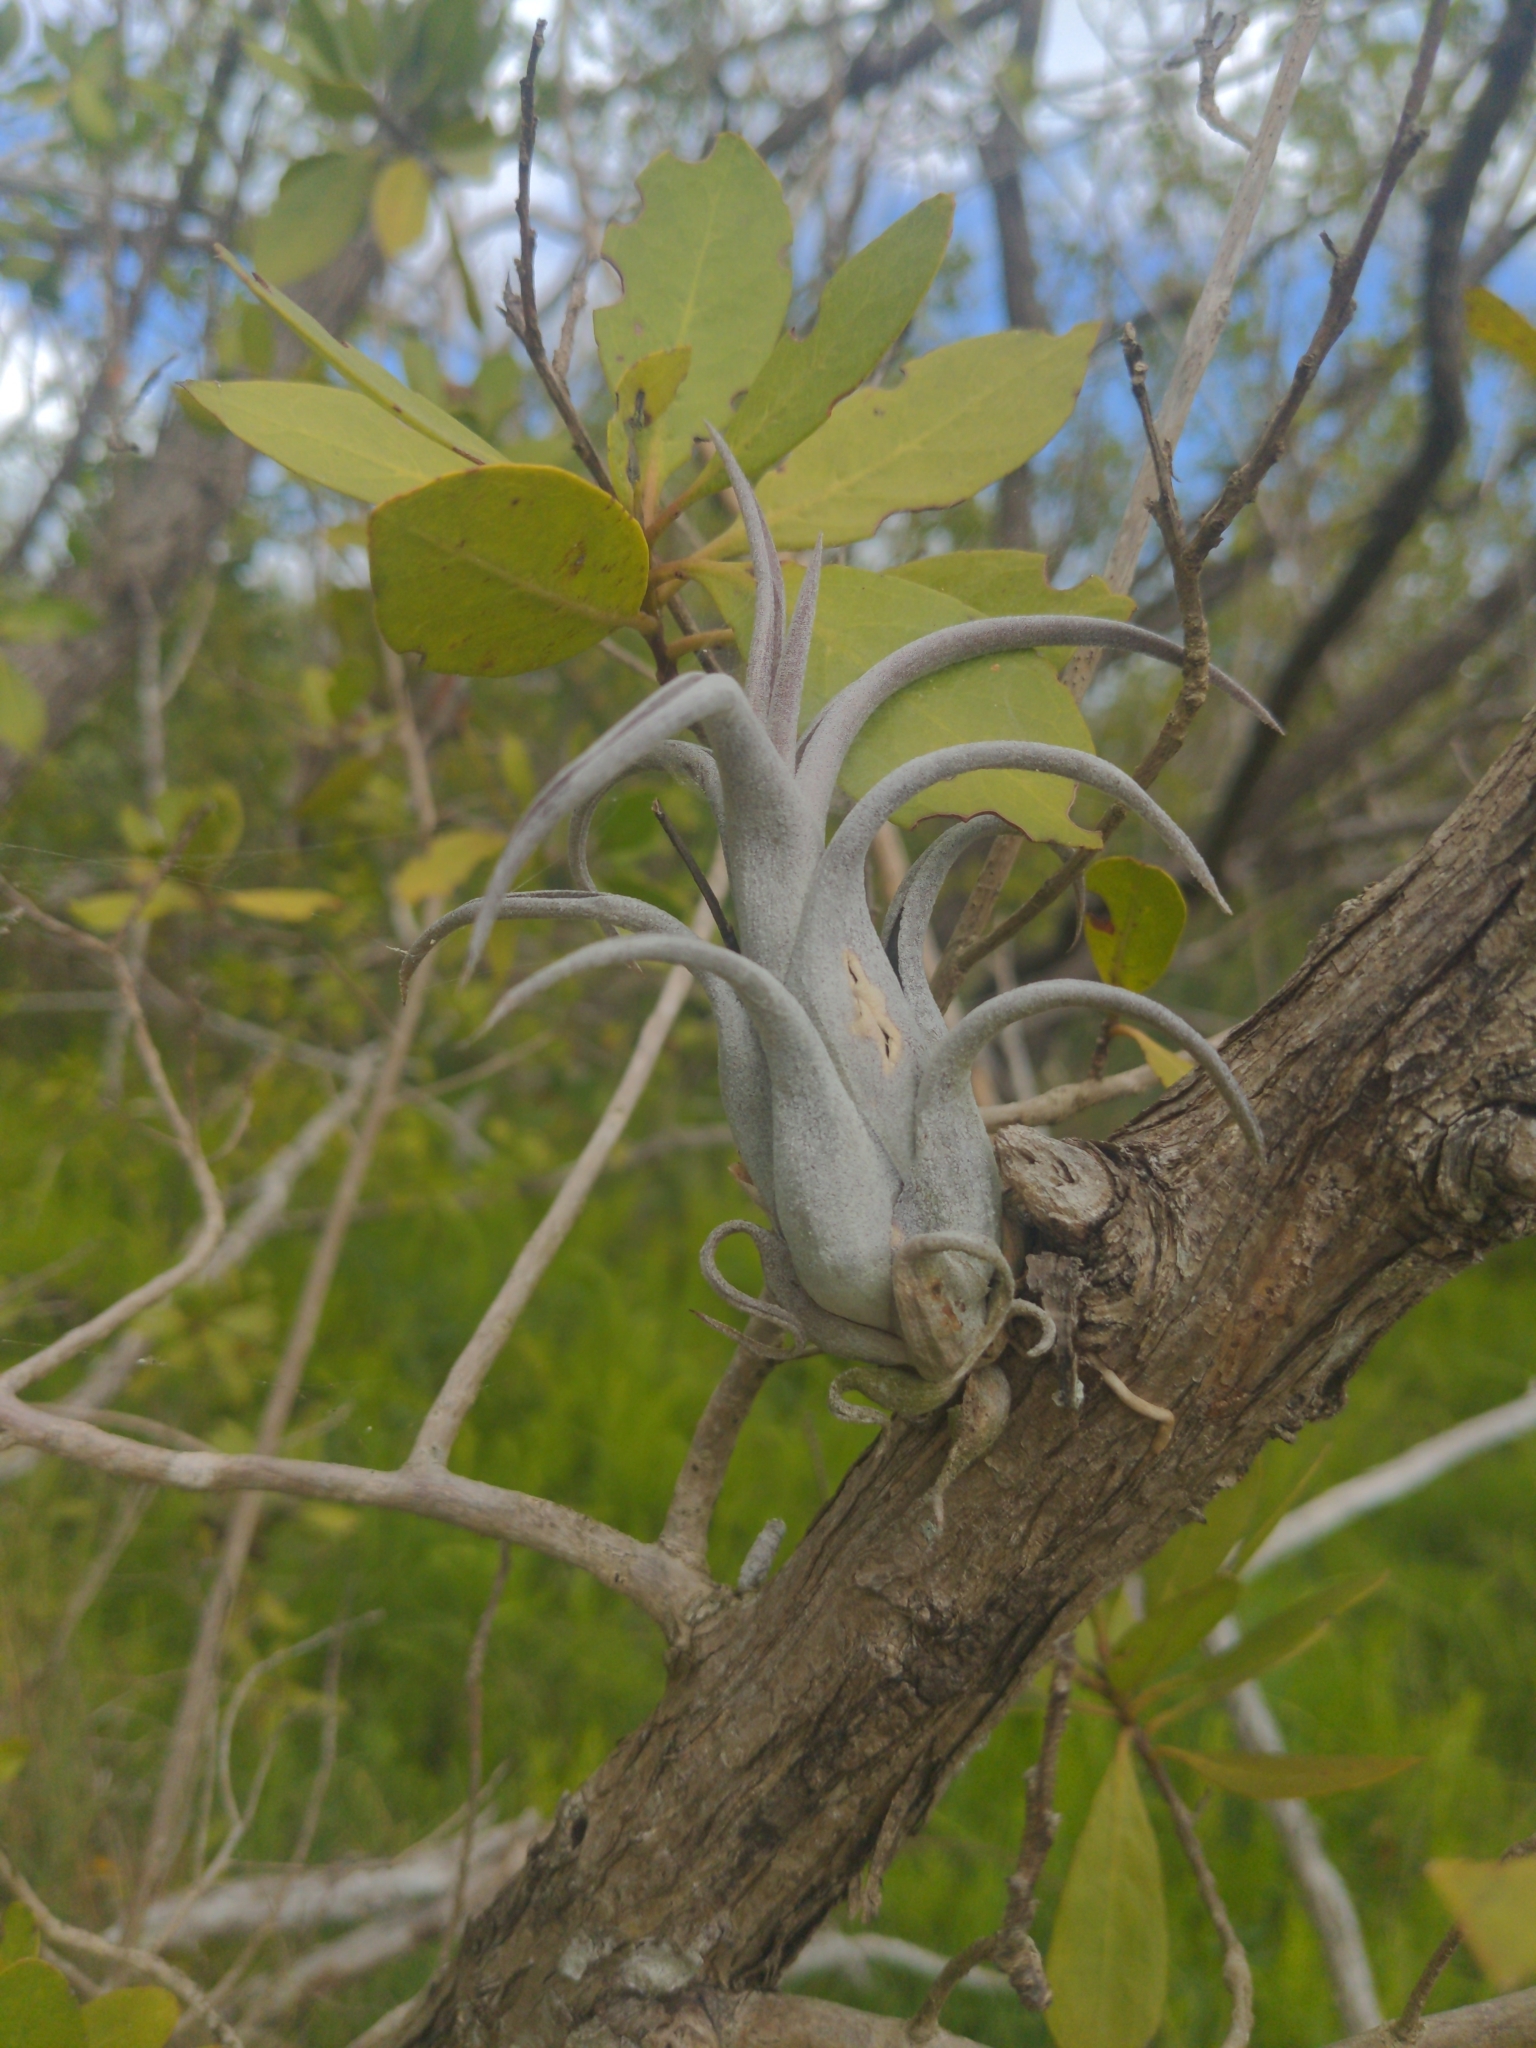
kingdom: Plantae
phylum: Tracheophyta
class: Liliopsida
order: Poales
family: Bromeliaceae
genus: Tillandsia
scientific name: Tillandsia paucifolia
